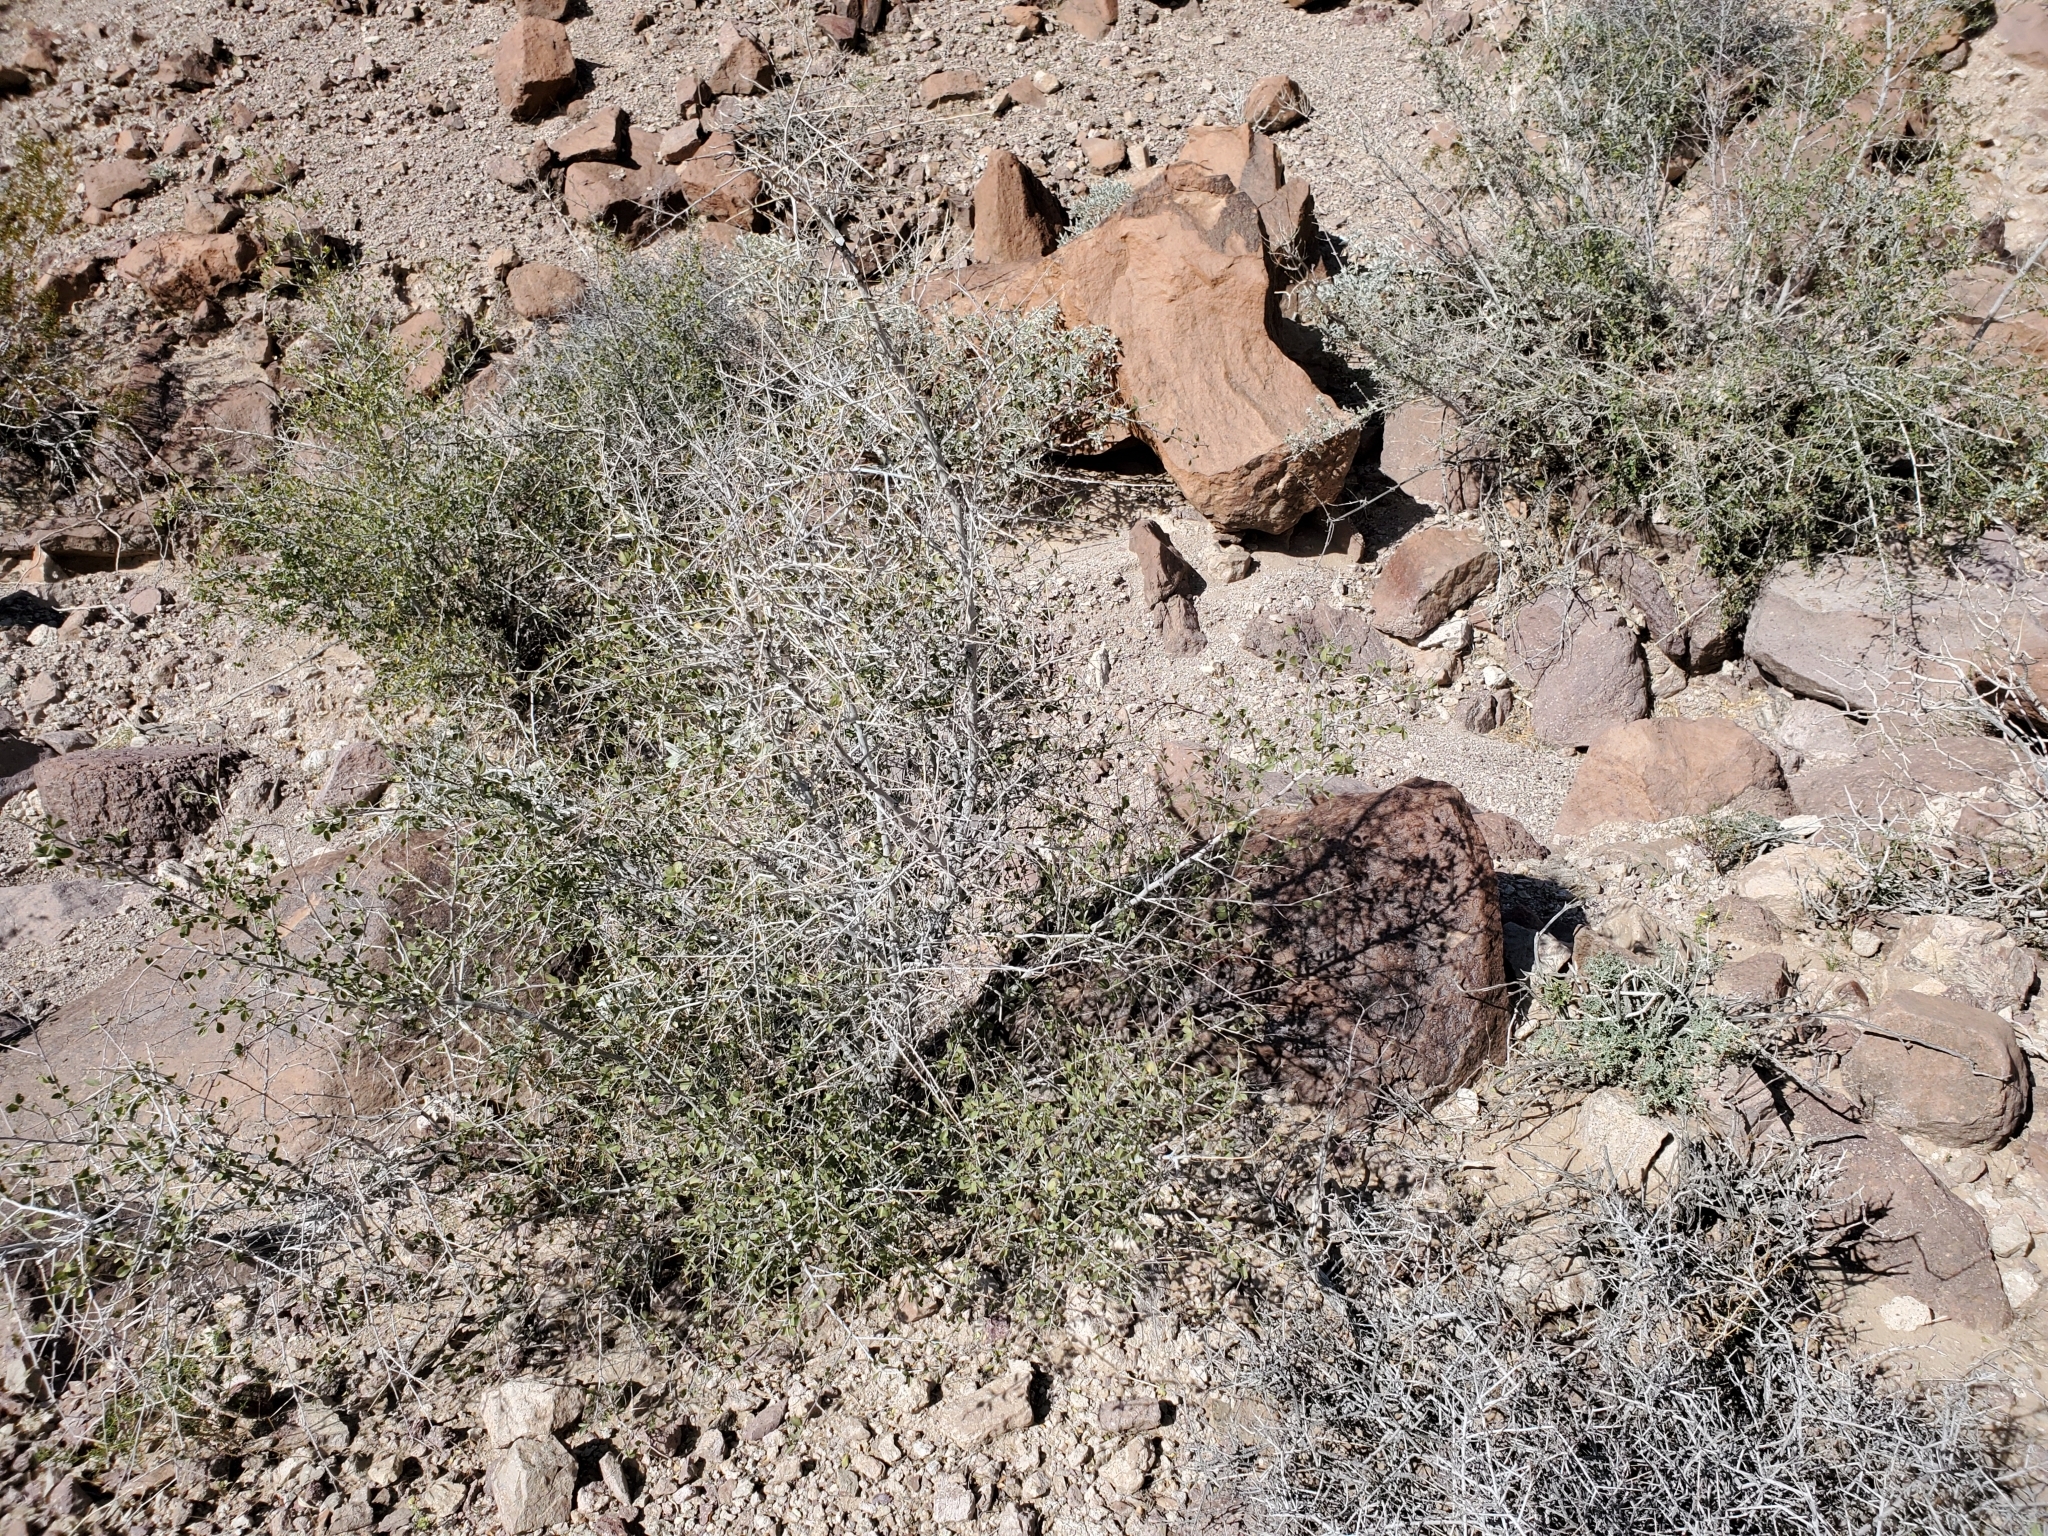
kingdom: Plantae
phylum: Tracheophyta
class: Magnoliopsida
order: Rosales
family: Rhamnaceae
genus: Colubrina
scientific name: Colubrina californica
